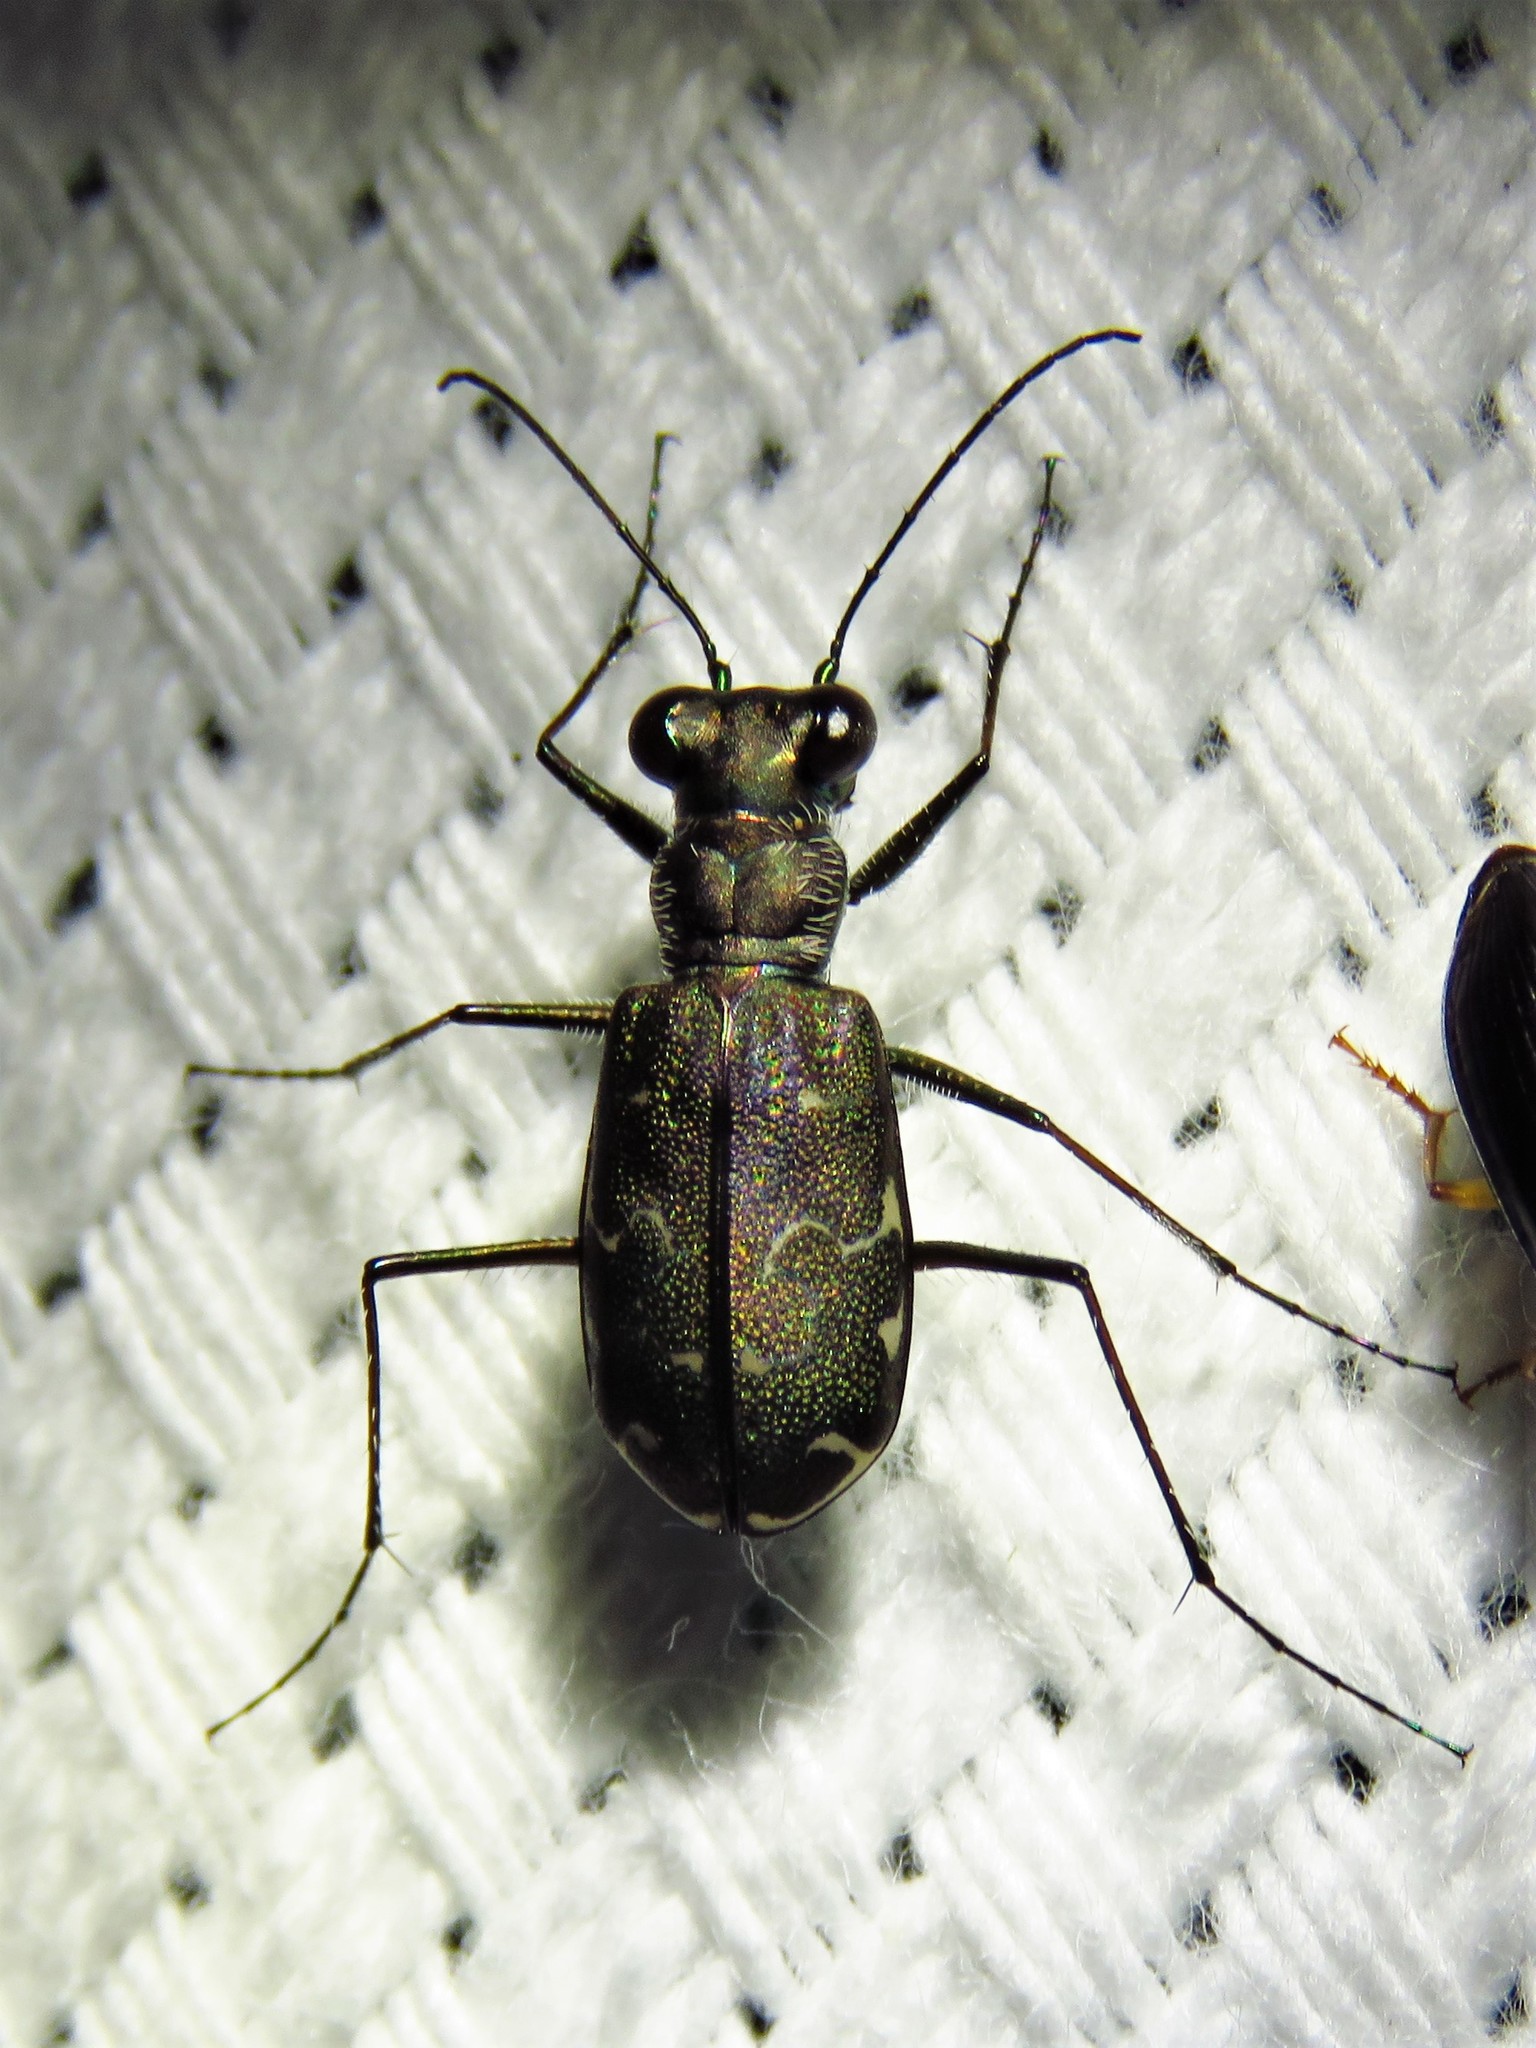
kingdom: Animalia
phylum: Arthropoda
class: Insecta
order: Coleoptera
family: Carabidae
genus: Cicindela
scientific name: Cicindela trifasciata
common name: Mudflat tiger beetle
